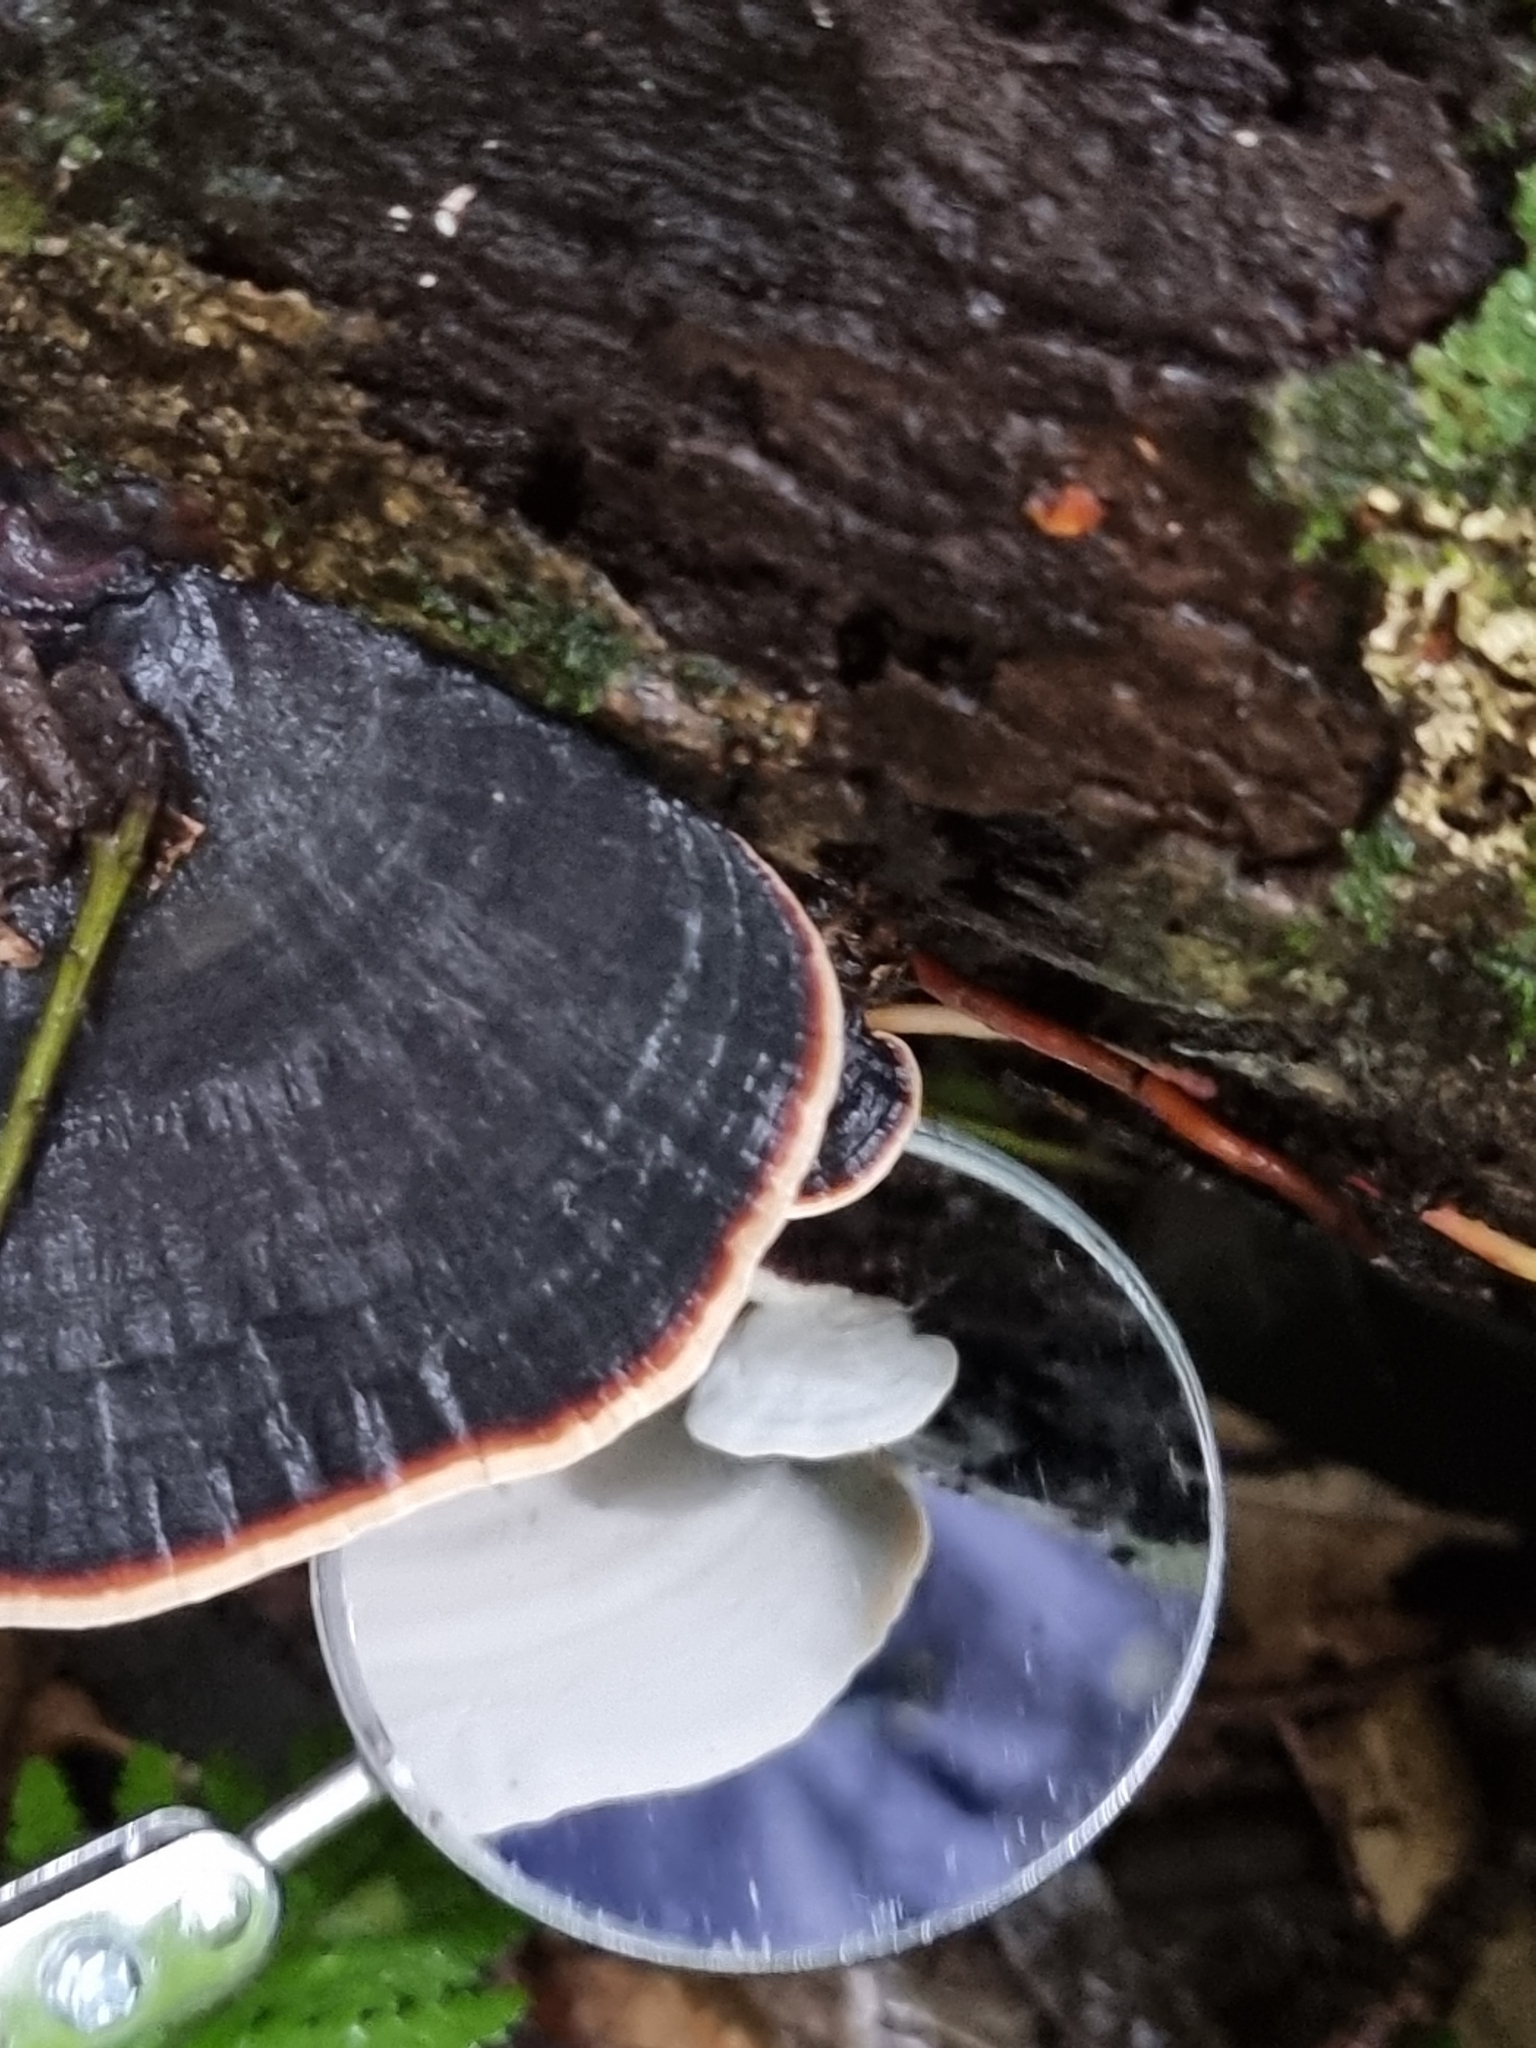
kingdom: Fungi
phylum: Basidiomycota
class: Agaricomycetes
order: Polyporales
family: Polyporaceae
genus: Microporus
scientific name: Microporus affinis
